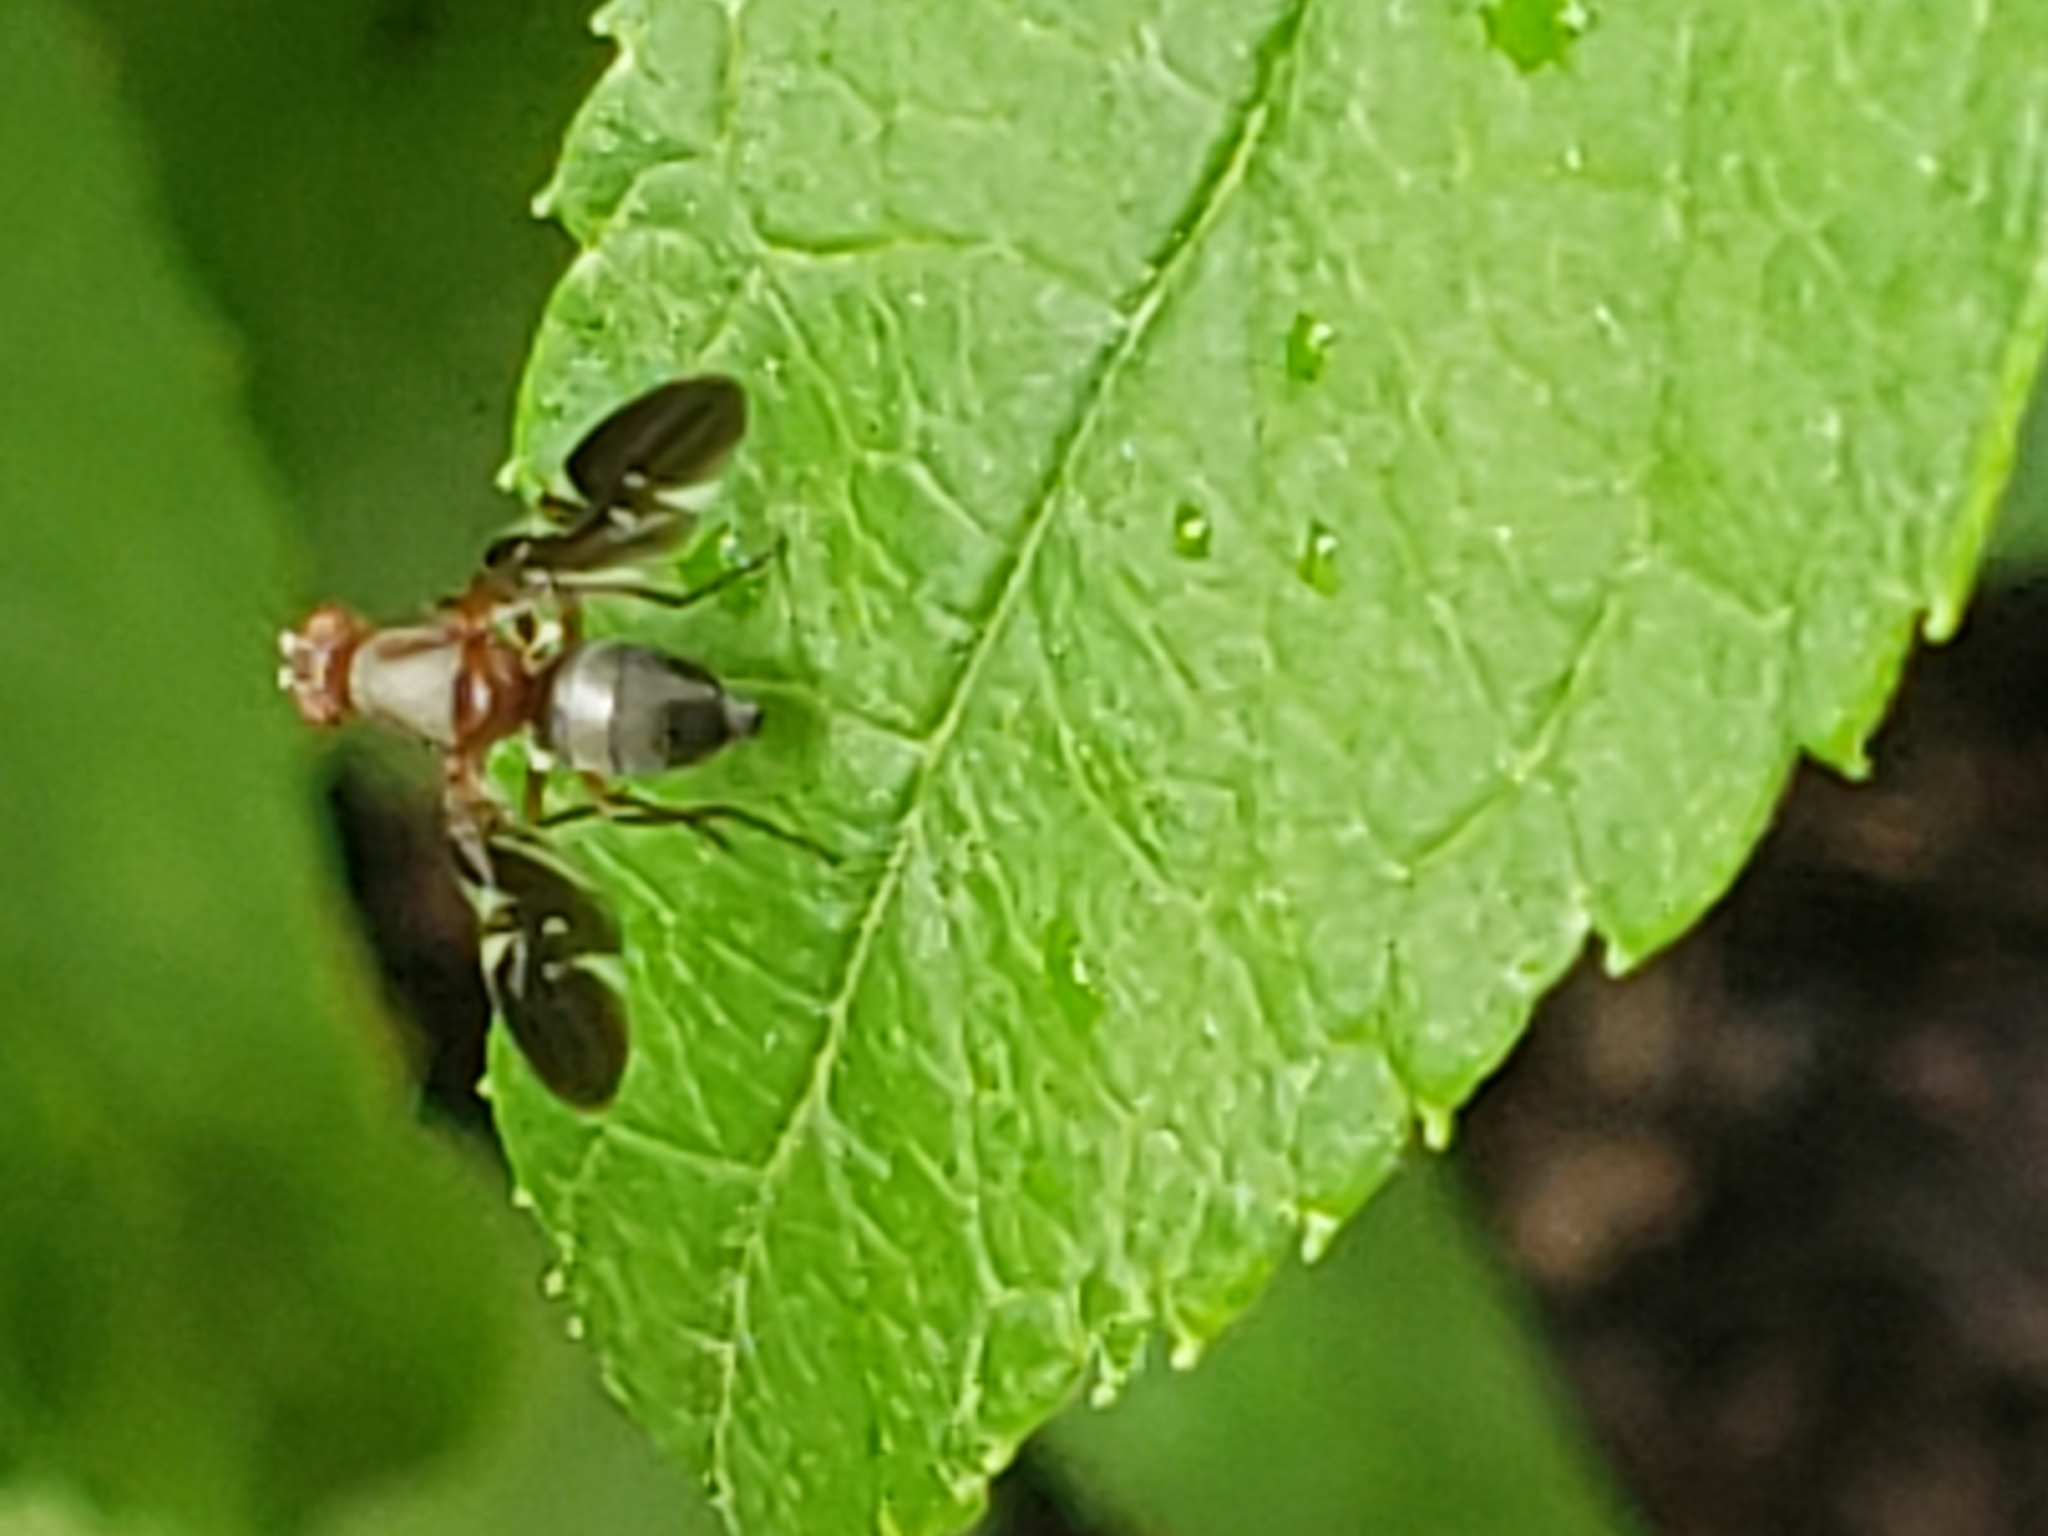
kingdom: Animalia
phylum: Arthropoda
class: Insecta
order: Diptera
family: Ulidiidae
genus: Delphinia
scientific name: Delphinia picta
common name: Common picture-winged fly
